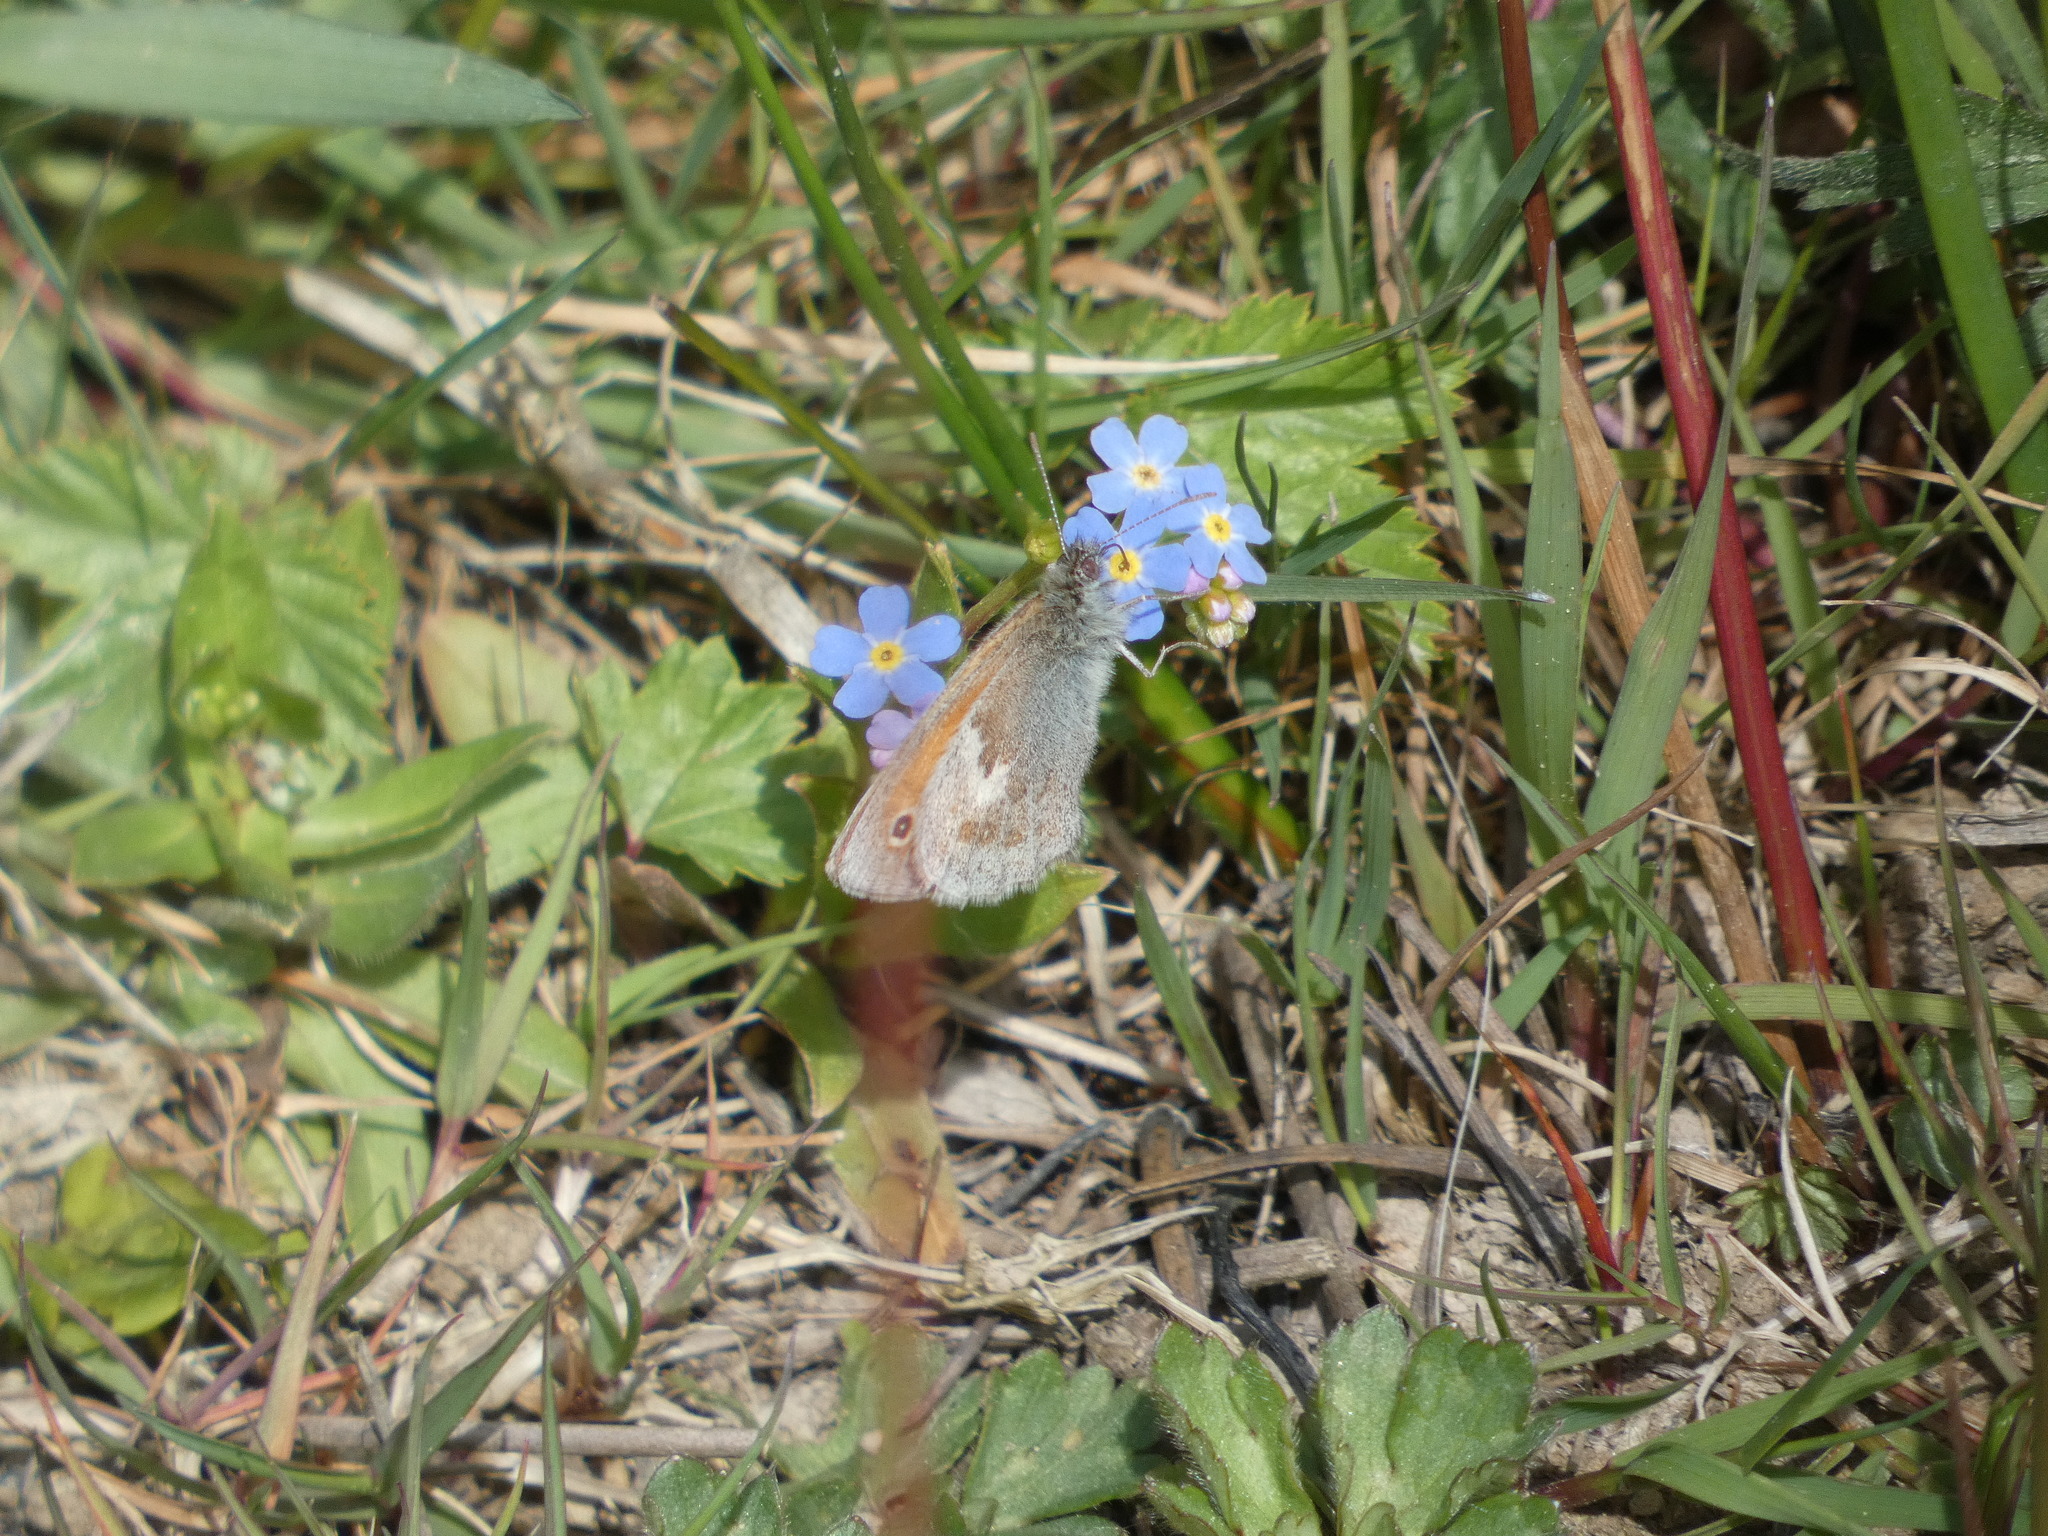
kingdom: Animalia
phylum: Arthropoda
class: Insecta
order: Lepidoptera
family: Nymphalidae
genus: Coenonympha
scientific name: Coenonympha pamphilus
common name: Small heath
